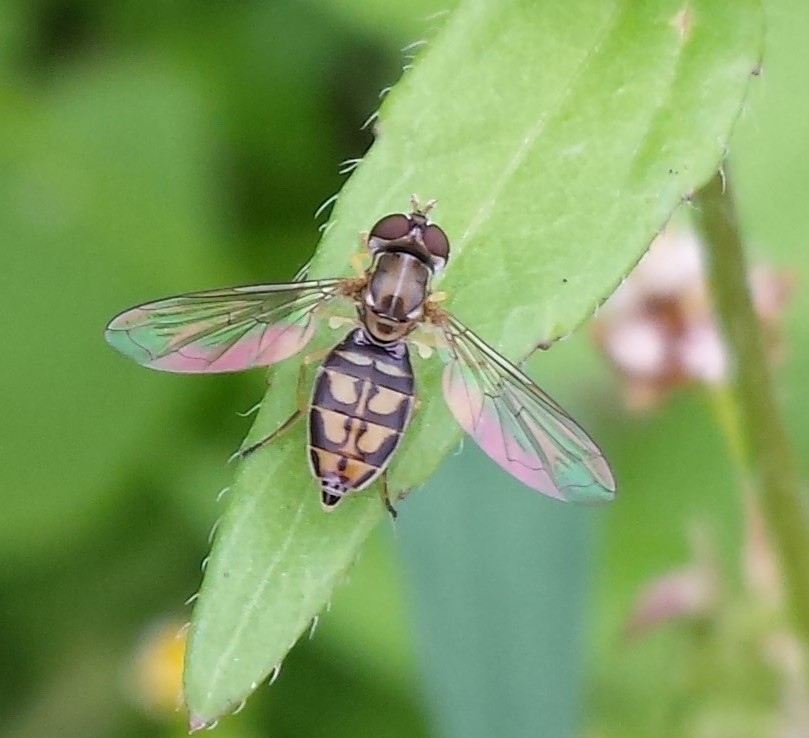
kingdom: Animalia
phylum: Arthropoda
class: Insecta
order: Diptera
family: Syrphidae
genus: Toxomerus
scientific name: Toxomerus marginatus
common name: Syrphid fly
